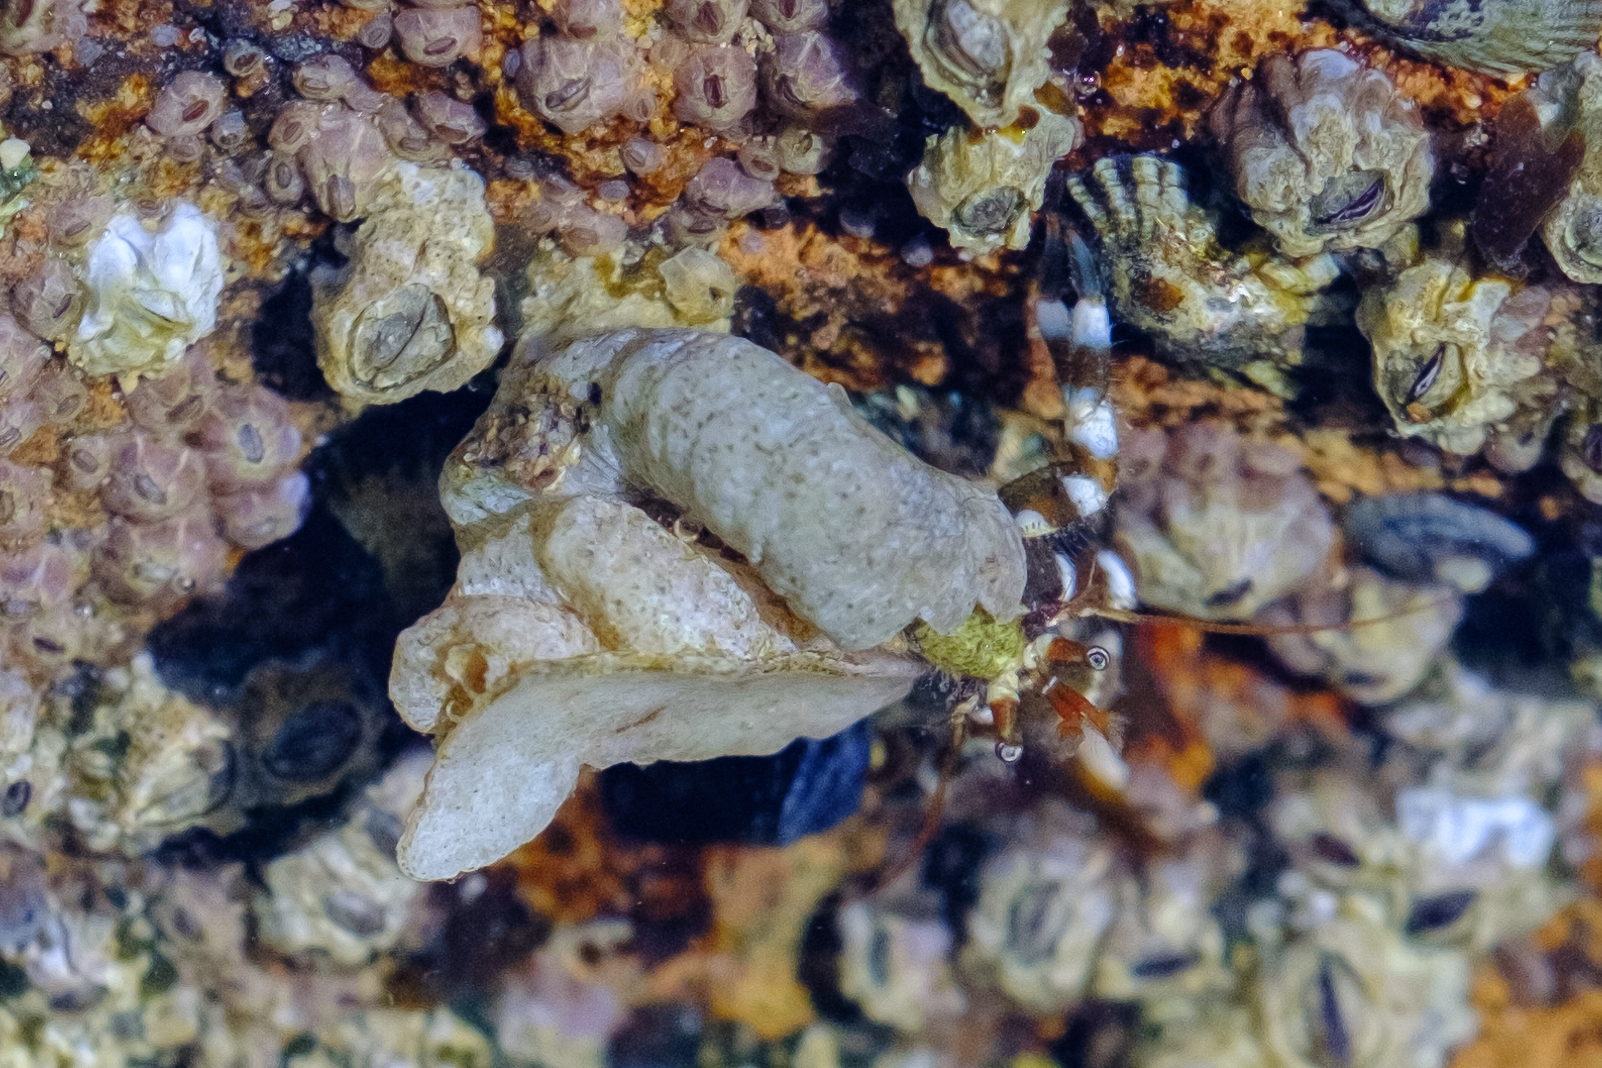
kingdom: Animalia
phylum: Arthropoda
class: Malacostraca
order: Decapoda
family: Paguridae
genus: Pagurus
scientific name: Pagurus samuelis
